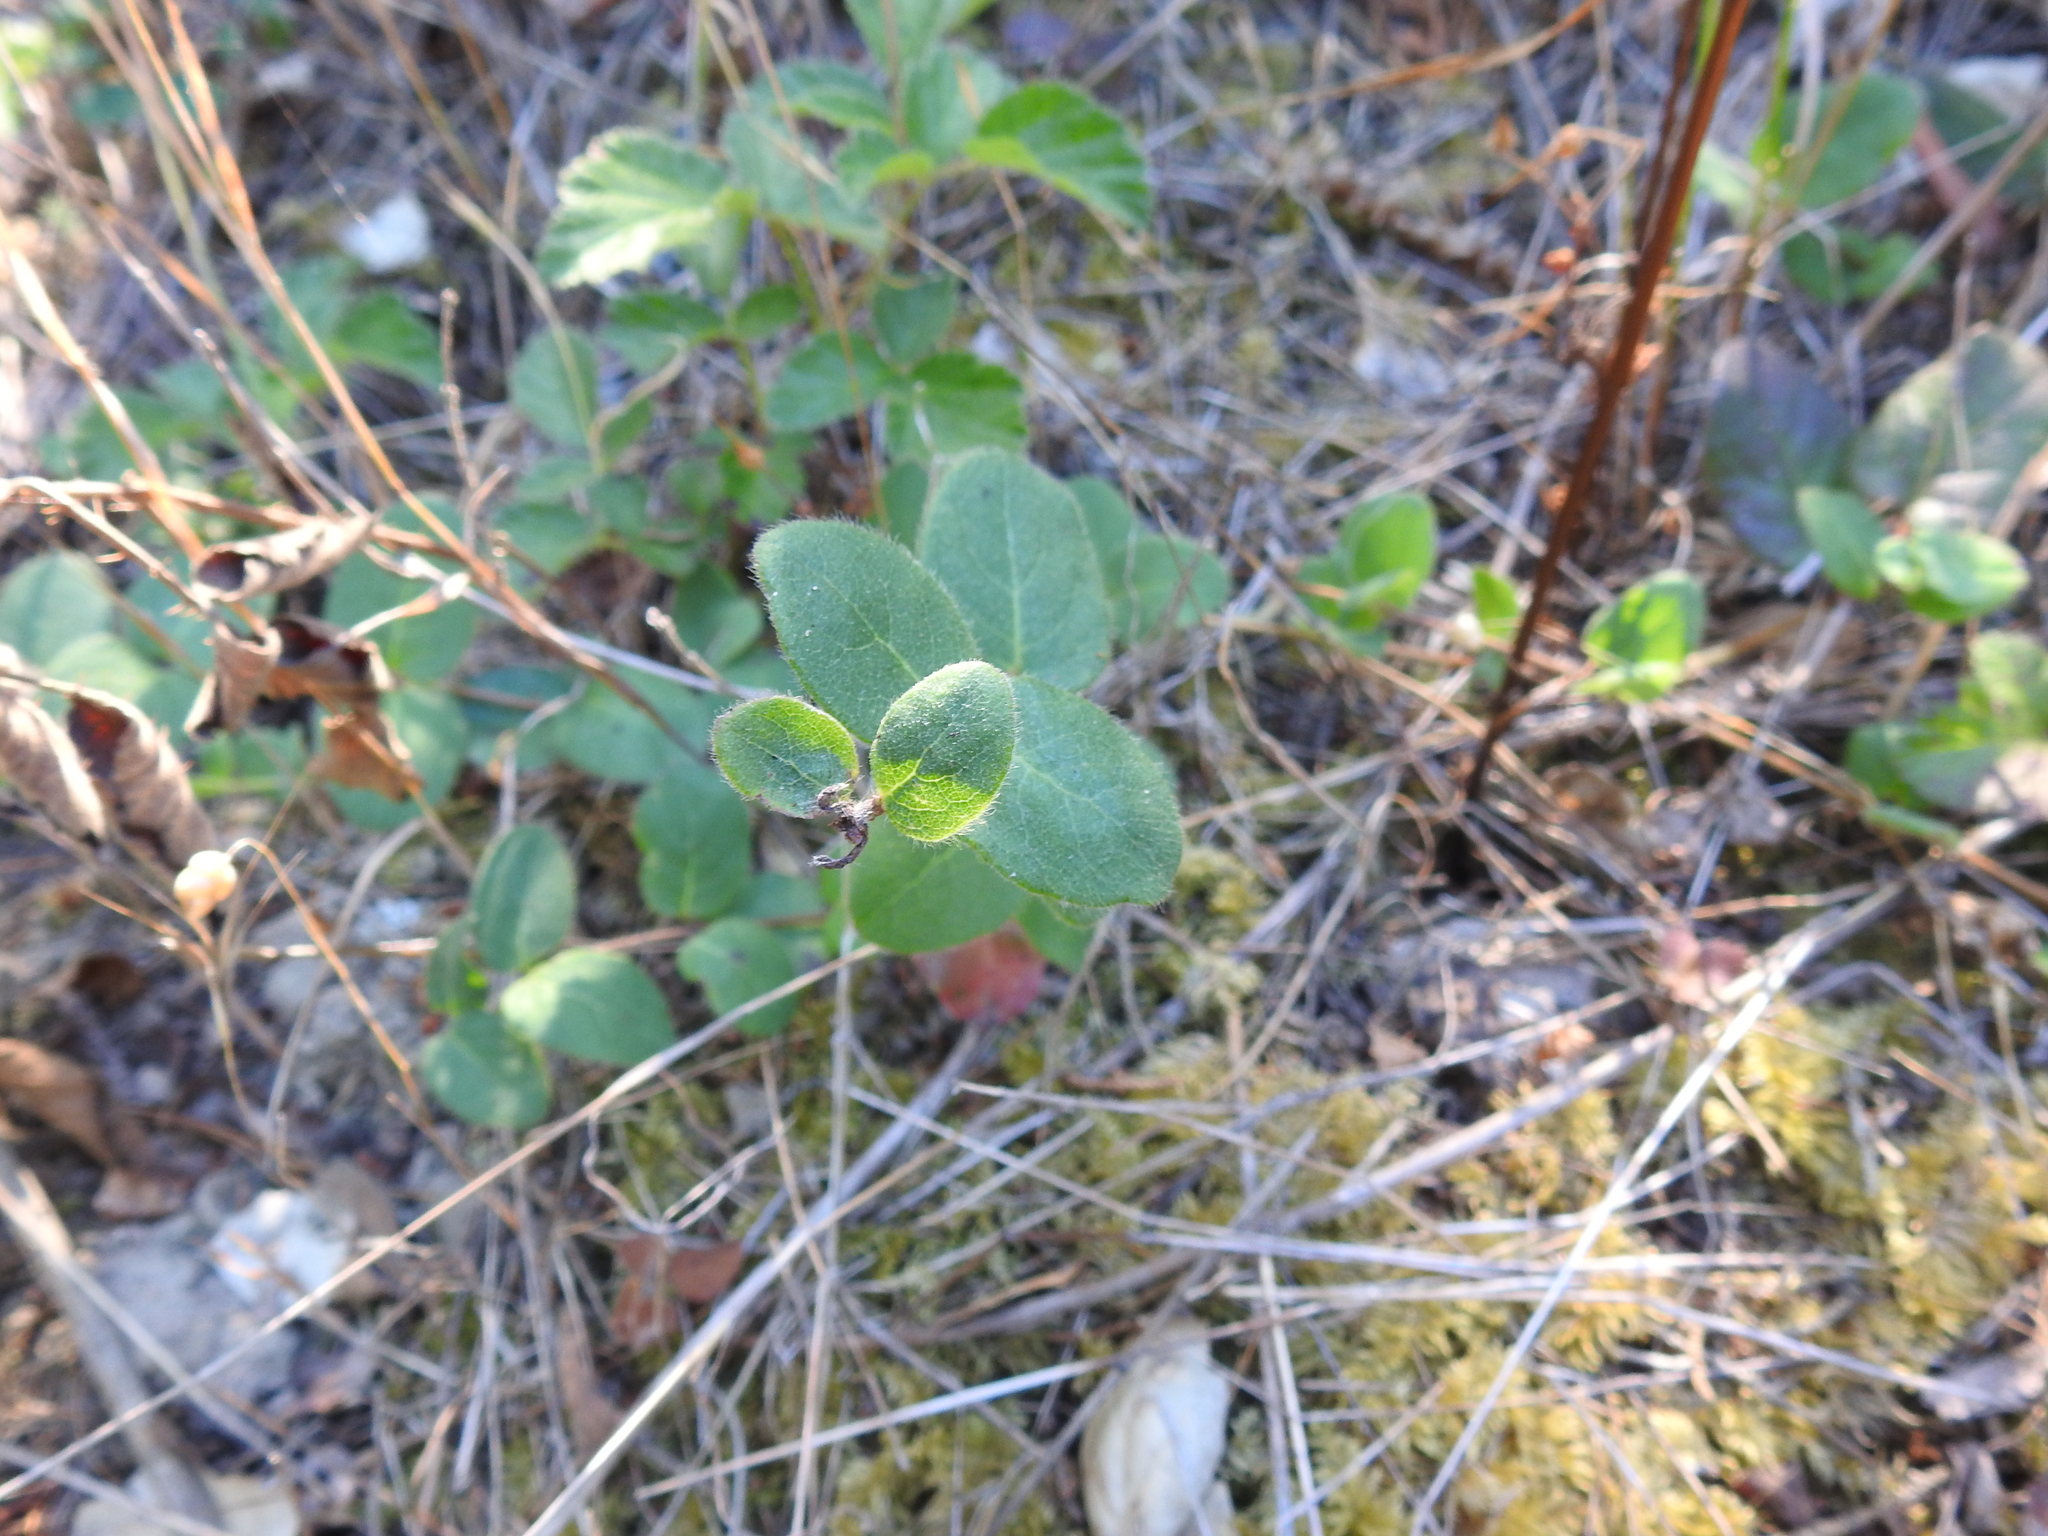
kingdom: Plantae
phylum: Tracheophyta
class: Magnoliopsida
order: Dipsacales
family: Caprifoliaceae
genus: Lonicera
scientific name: Lonicera hispidula
